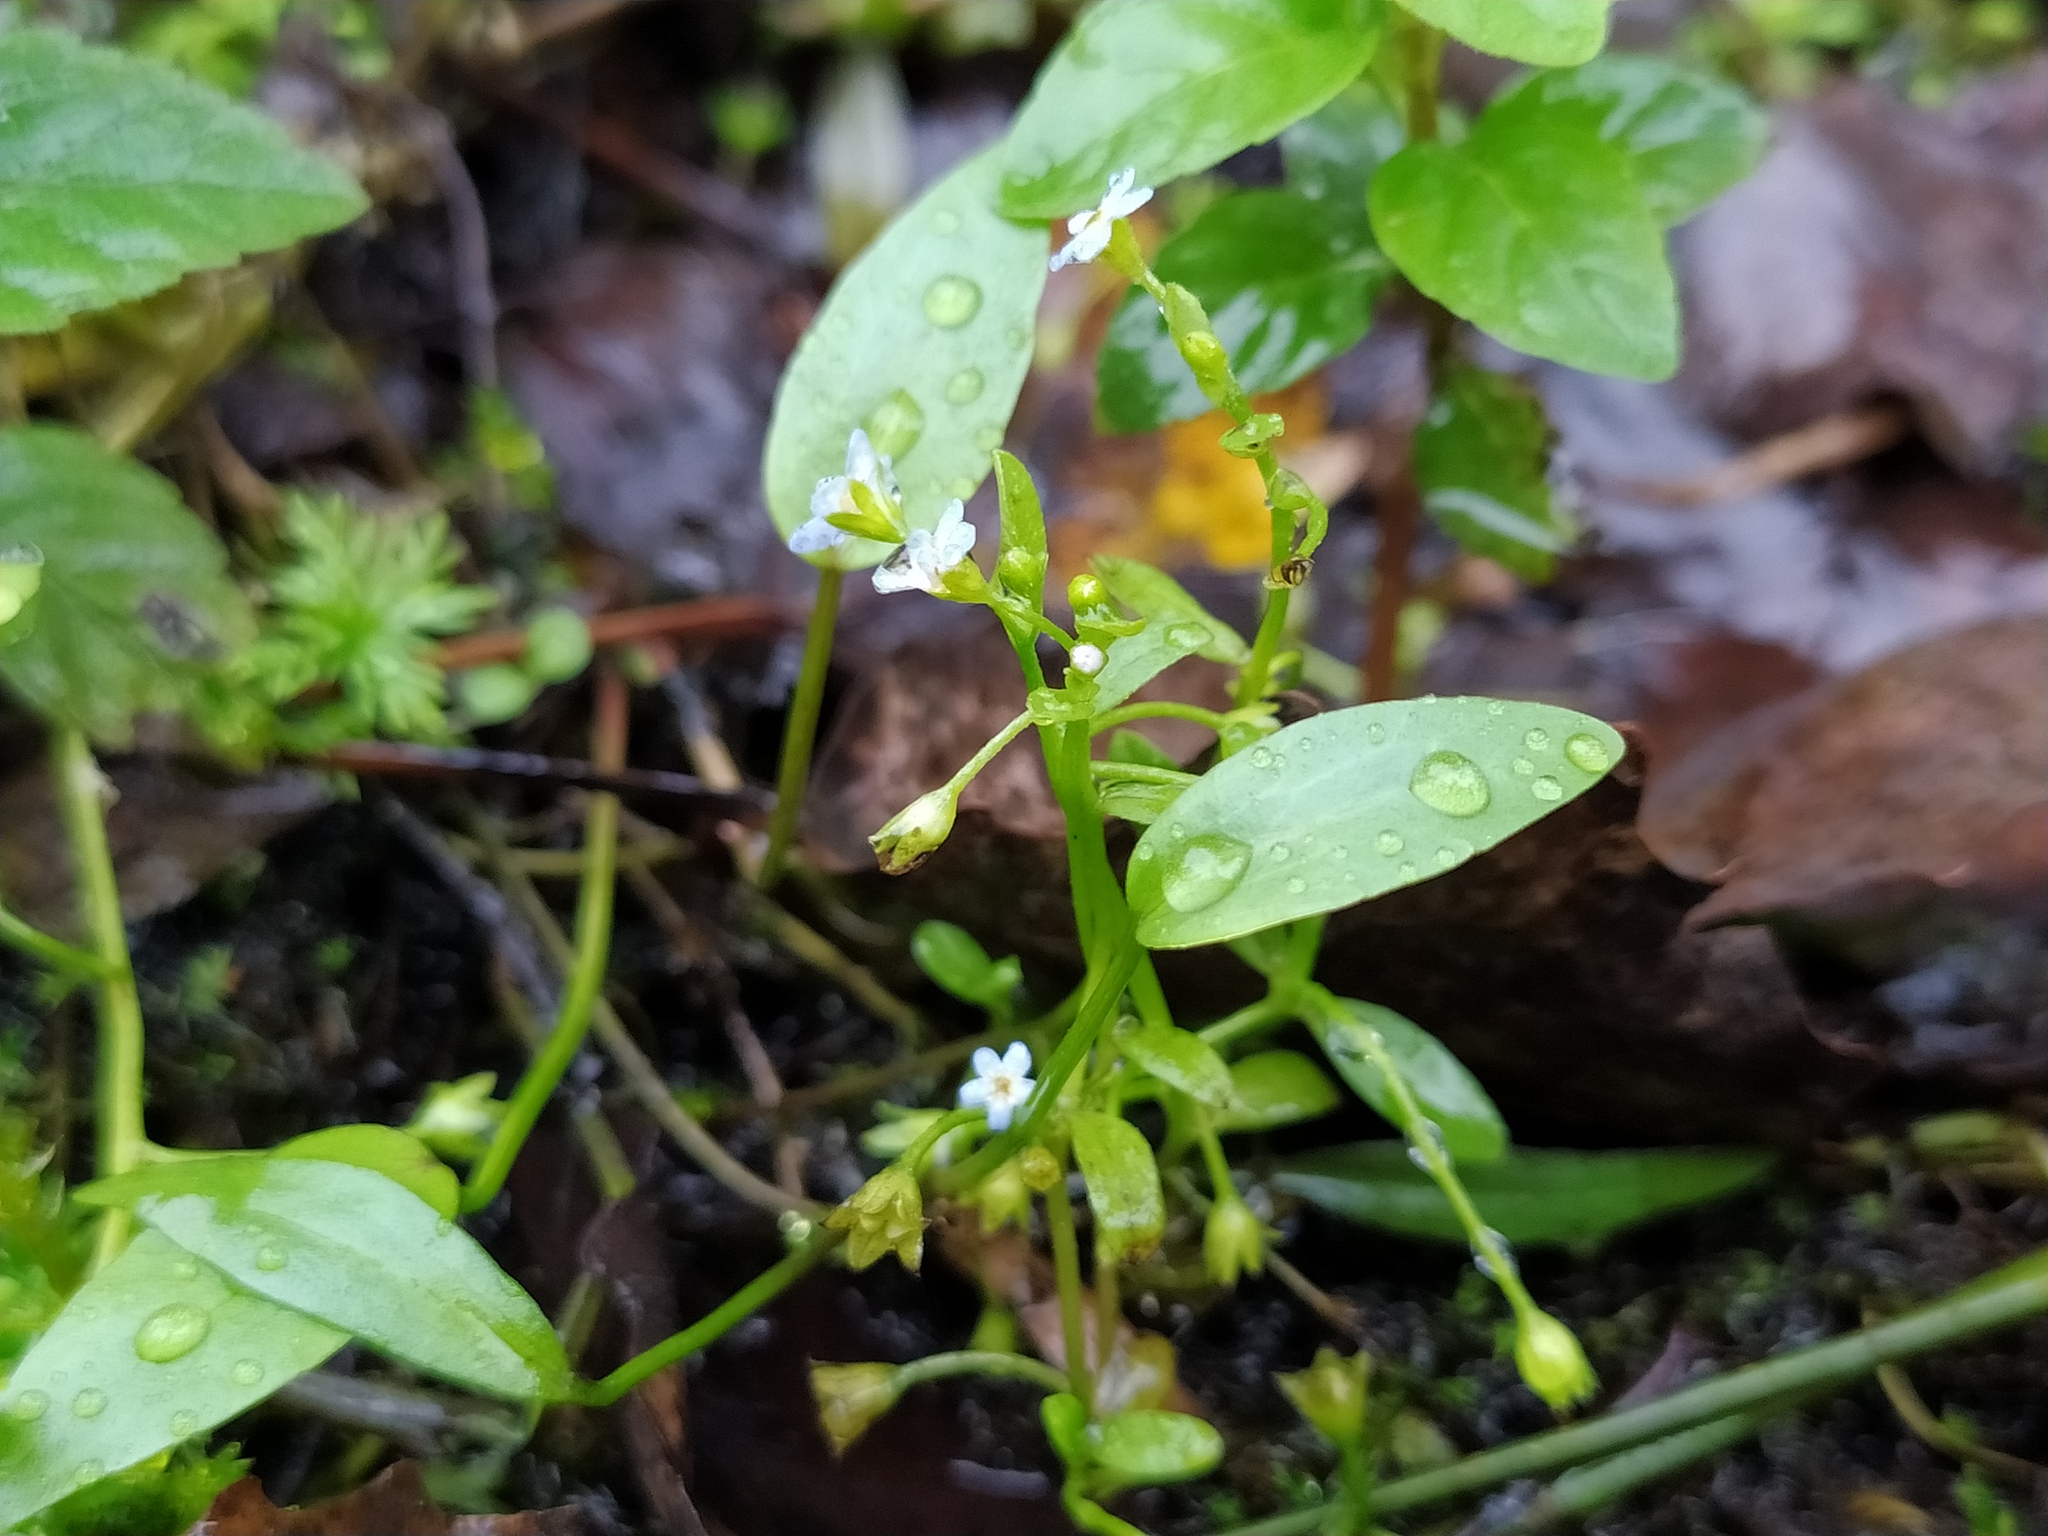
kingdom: Plantae
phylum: Tracheophyta
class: Magnoliopsida
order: Boraginales
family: Boraginaceae
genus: Myosotis
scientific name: Myosotis laxa
